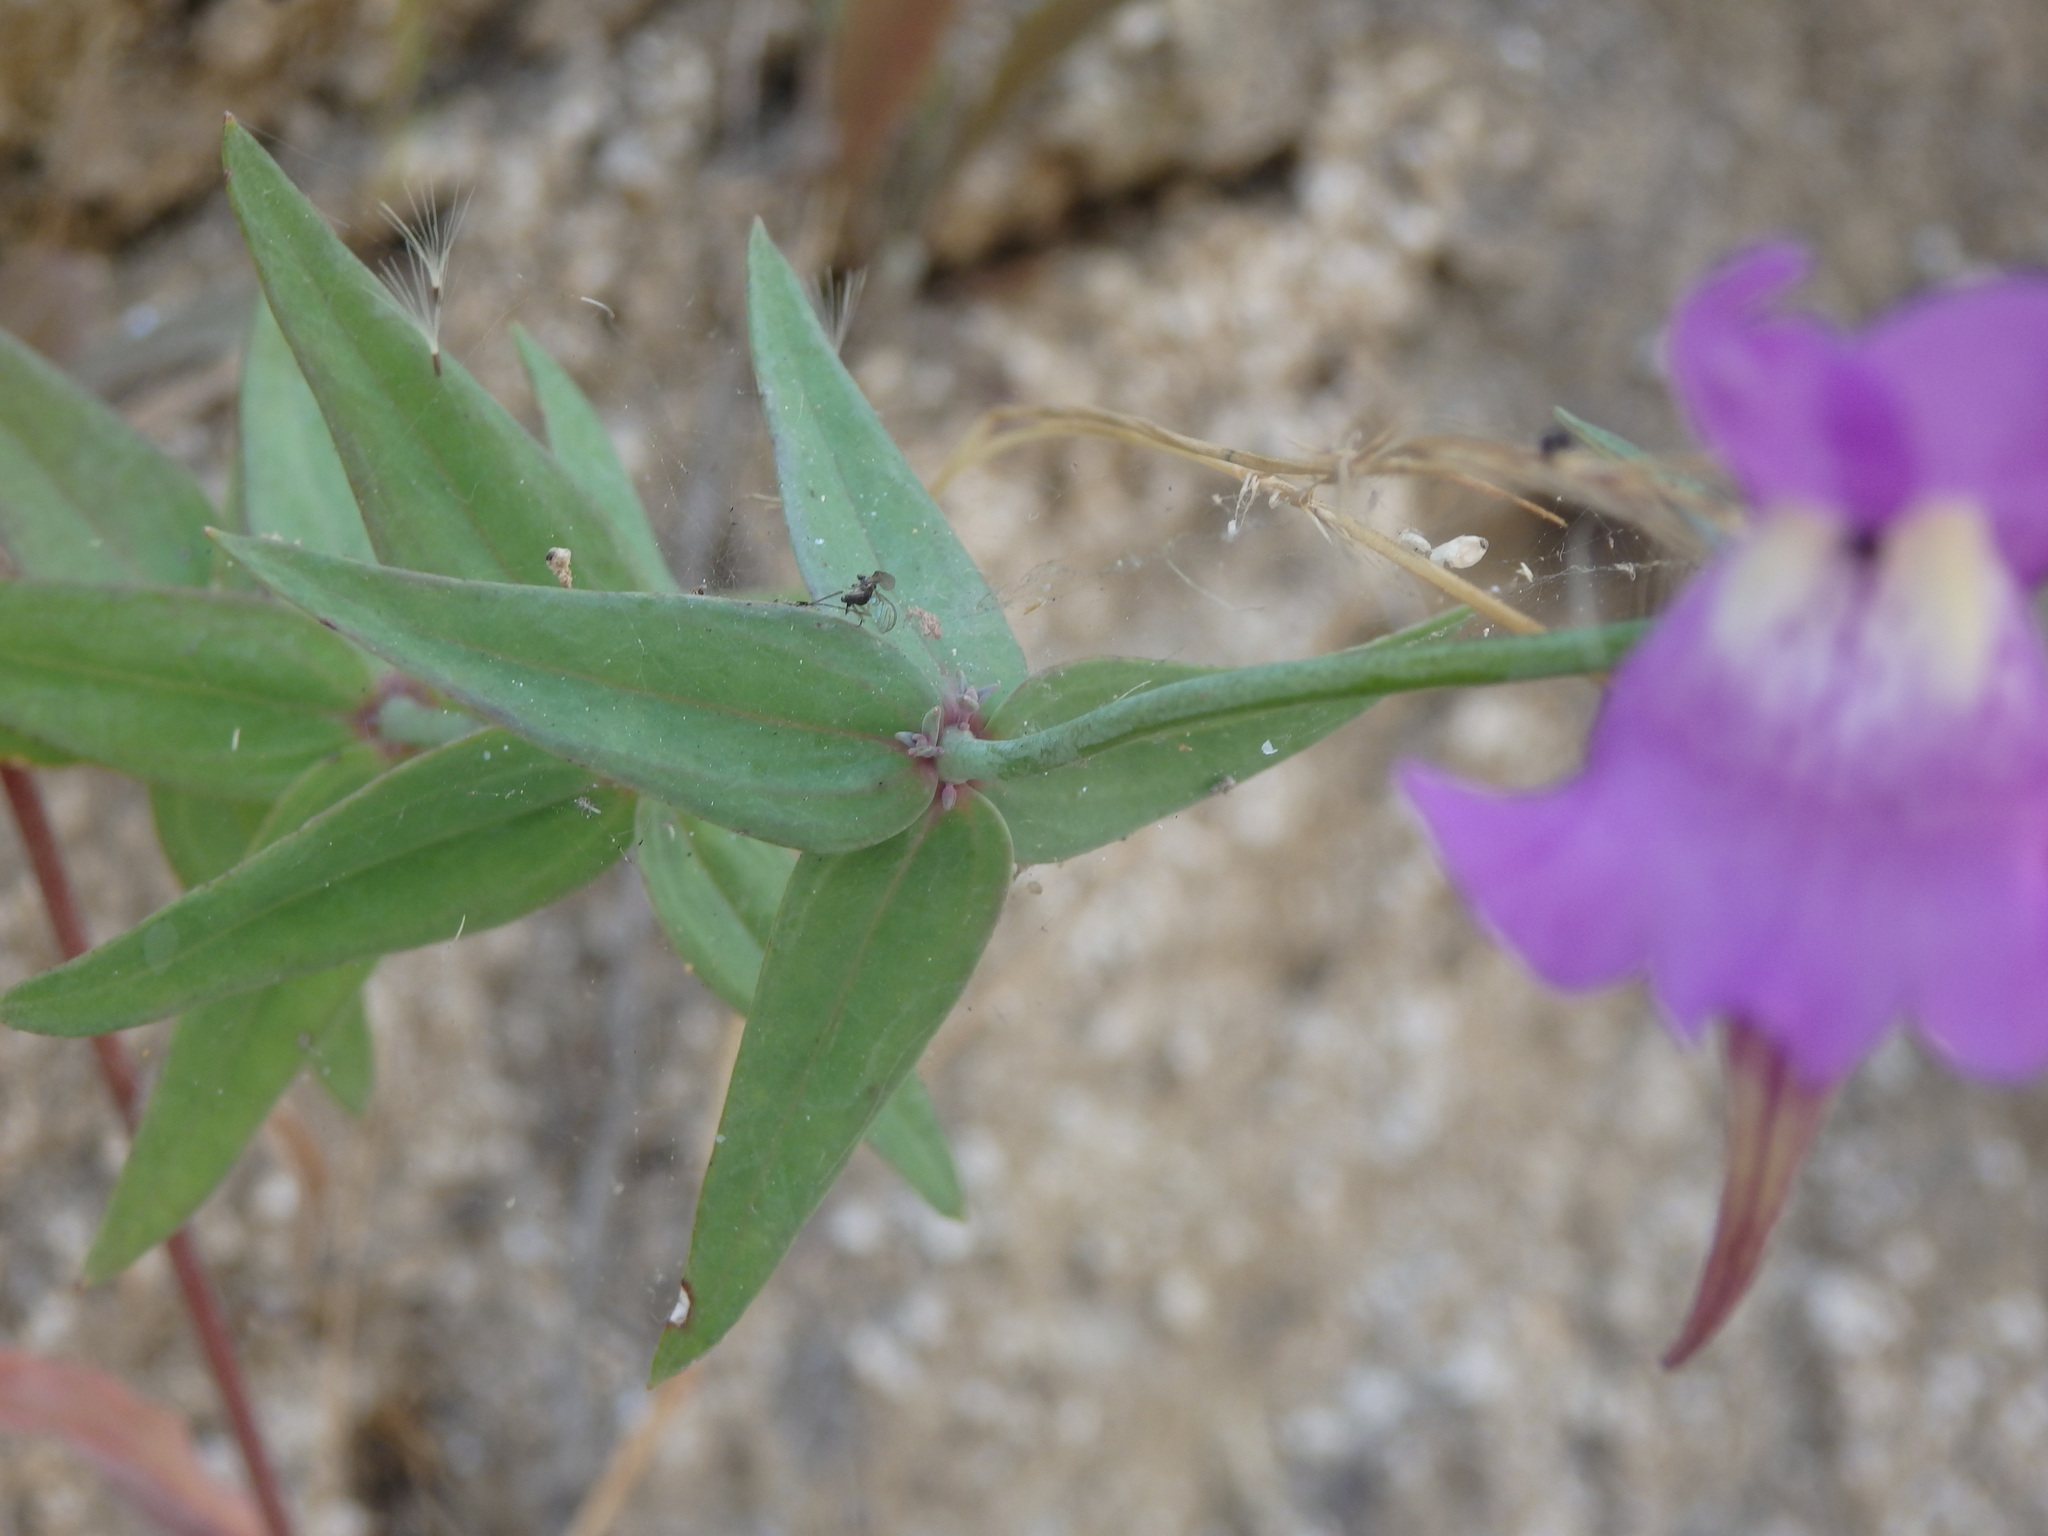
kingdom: Plantae
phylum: Tracheophyta
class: Magnoliopsida
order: Lamiales
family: Plantaginaceae
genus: Linaria
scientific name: Linaria triornithophora
